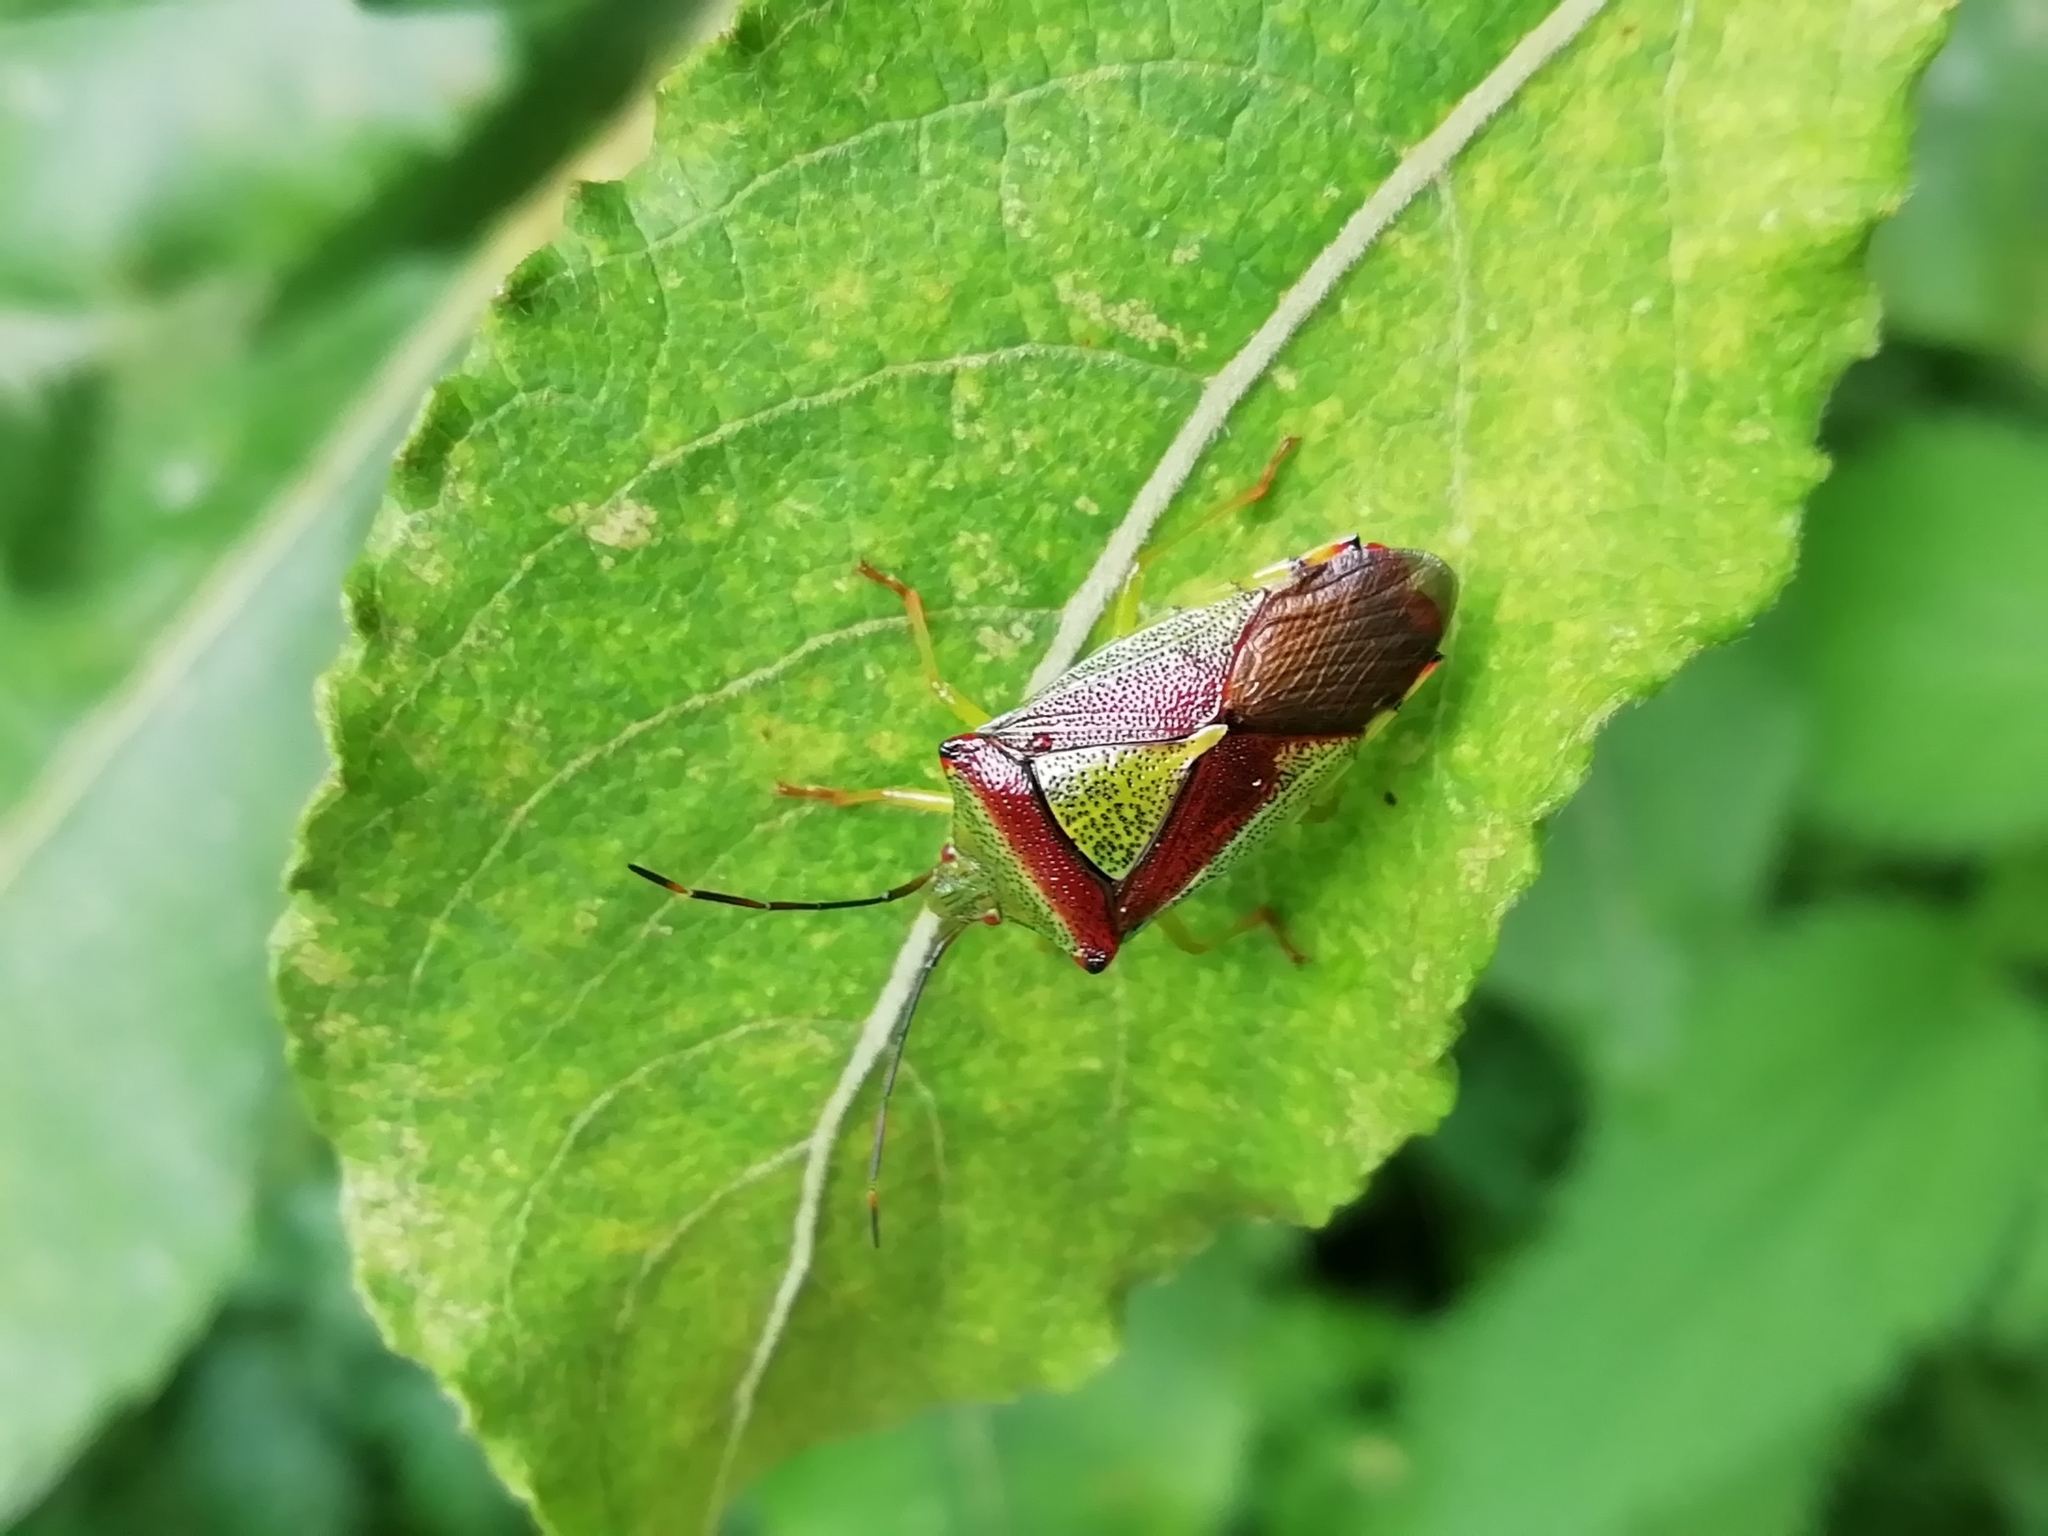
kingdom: Animalia
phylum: Arthropoda
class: Insecta
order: Hemiptera
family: Acanthosomatidae
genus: Acanthosoma
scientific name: Acanthosoma spinicolle
